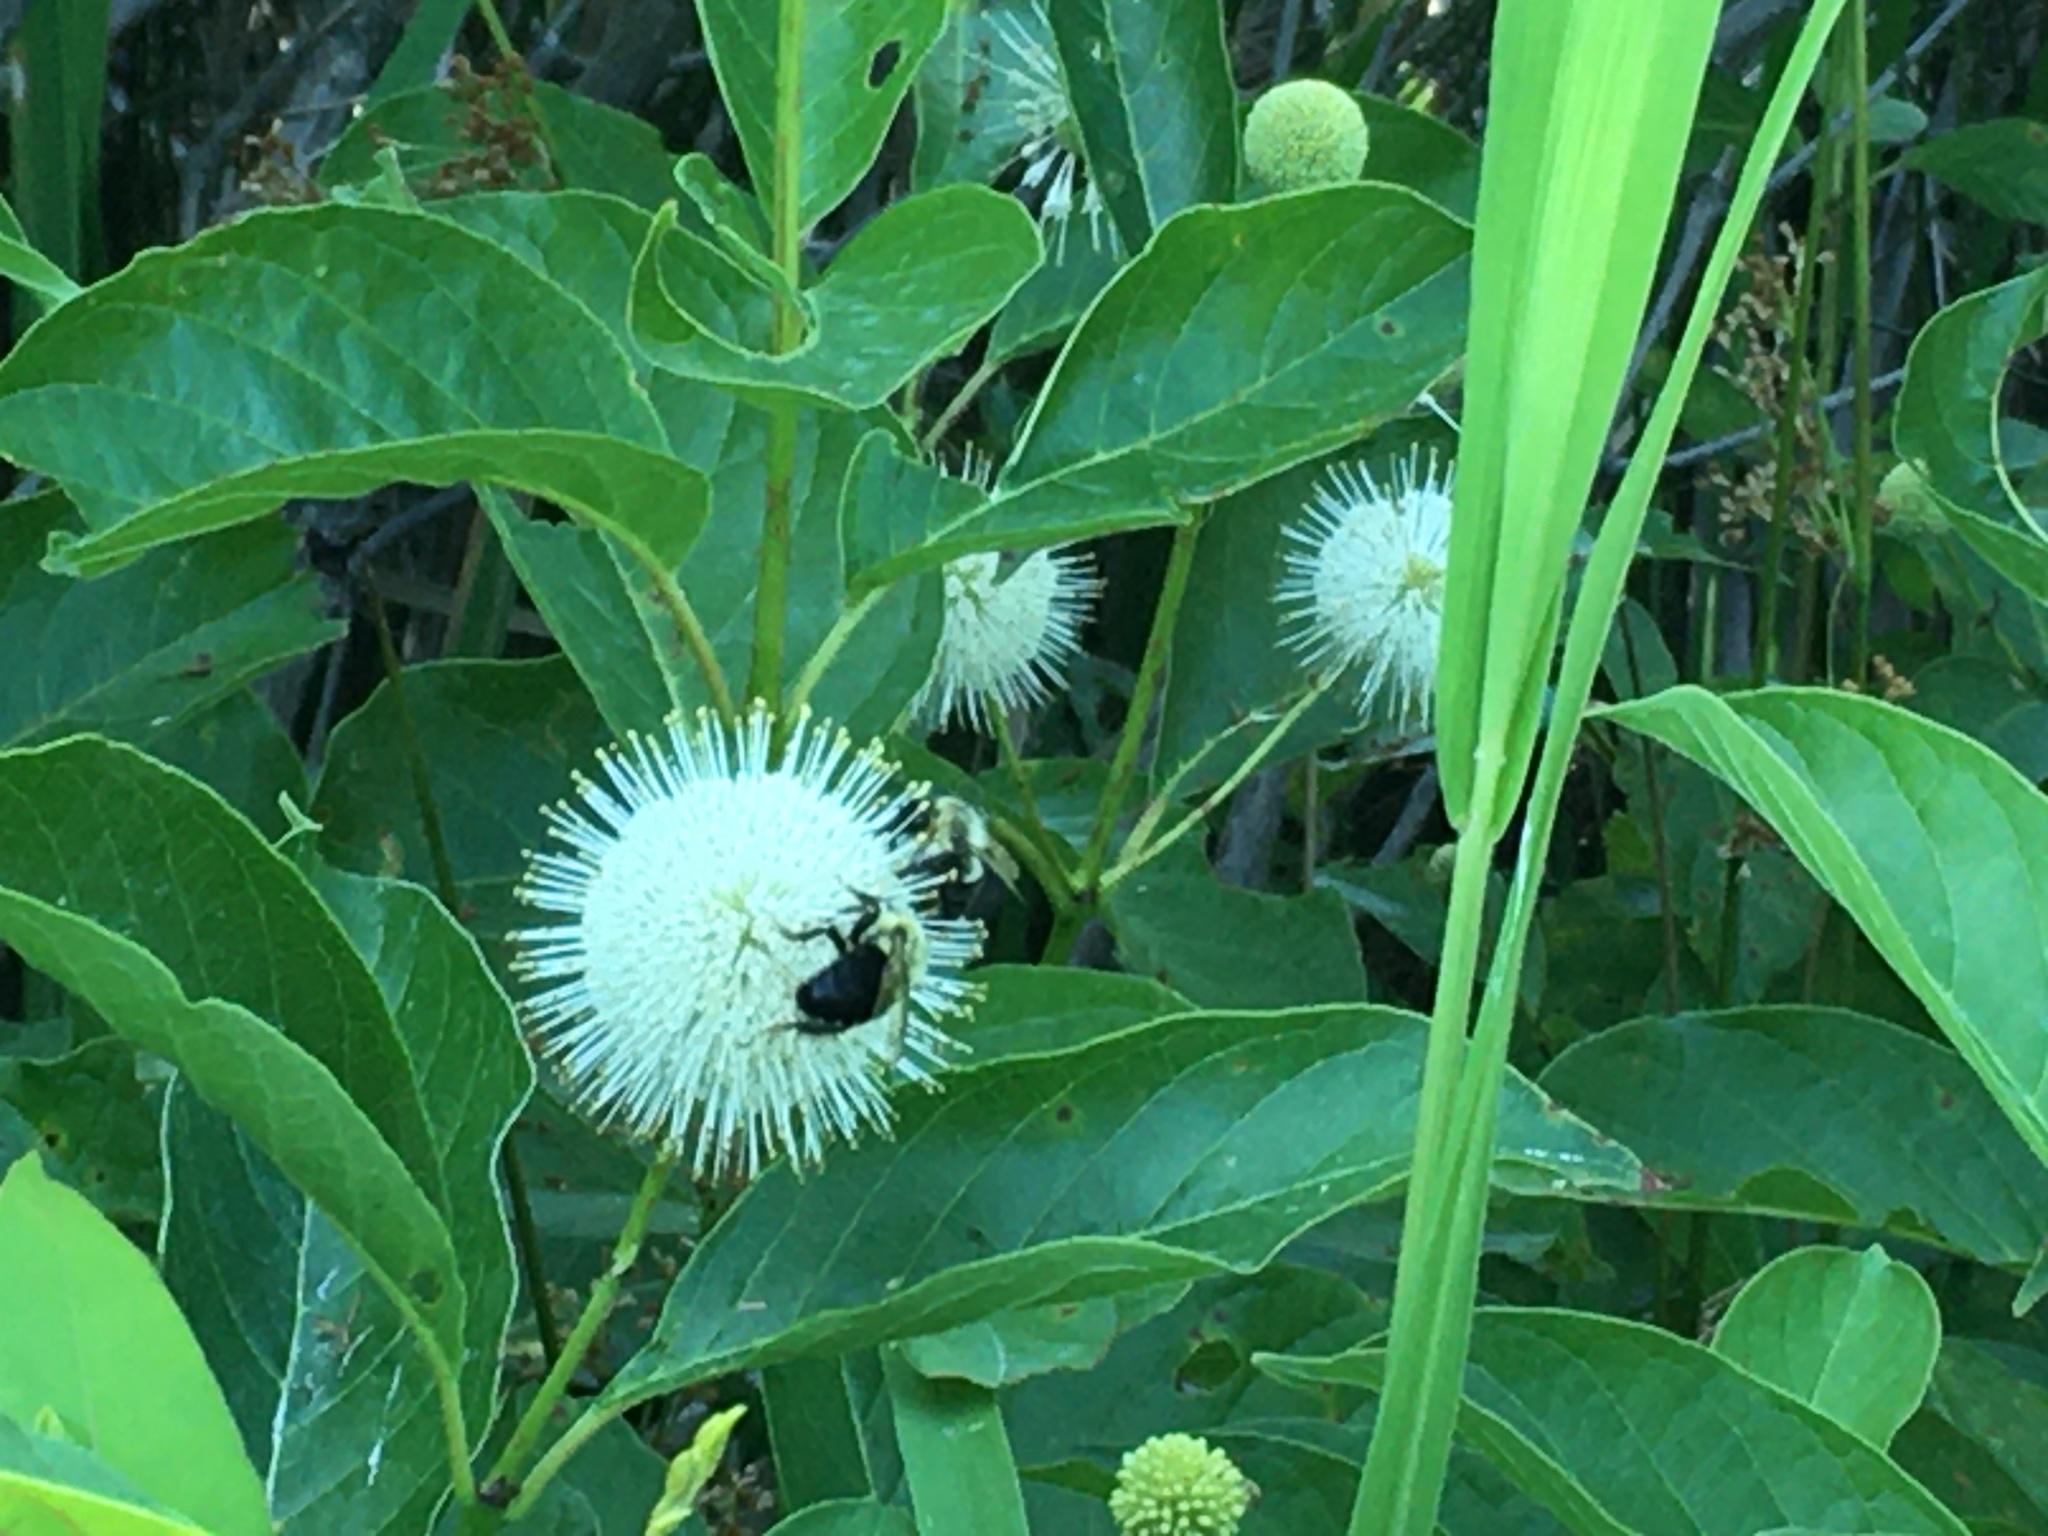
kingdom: Plantae
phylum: Tracheophyta
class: Magnoliopsida
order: Gentianales
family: Rubiaceae
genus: Cephalanthus
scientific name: Cephalanthus occidentalis
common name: Button-willow
